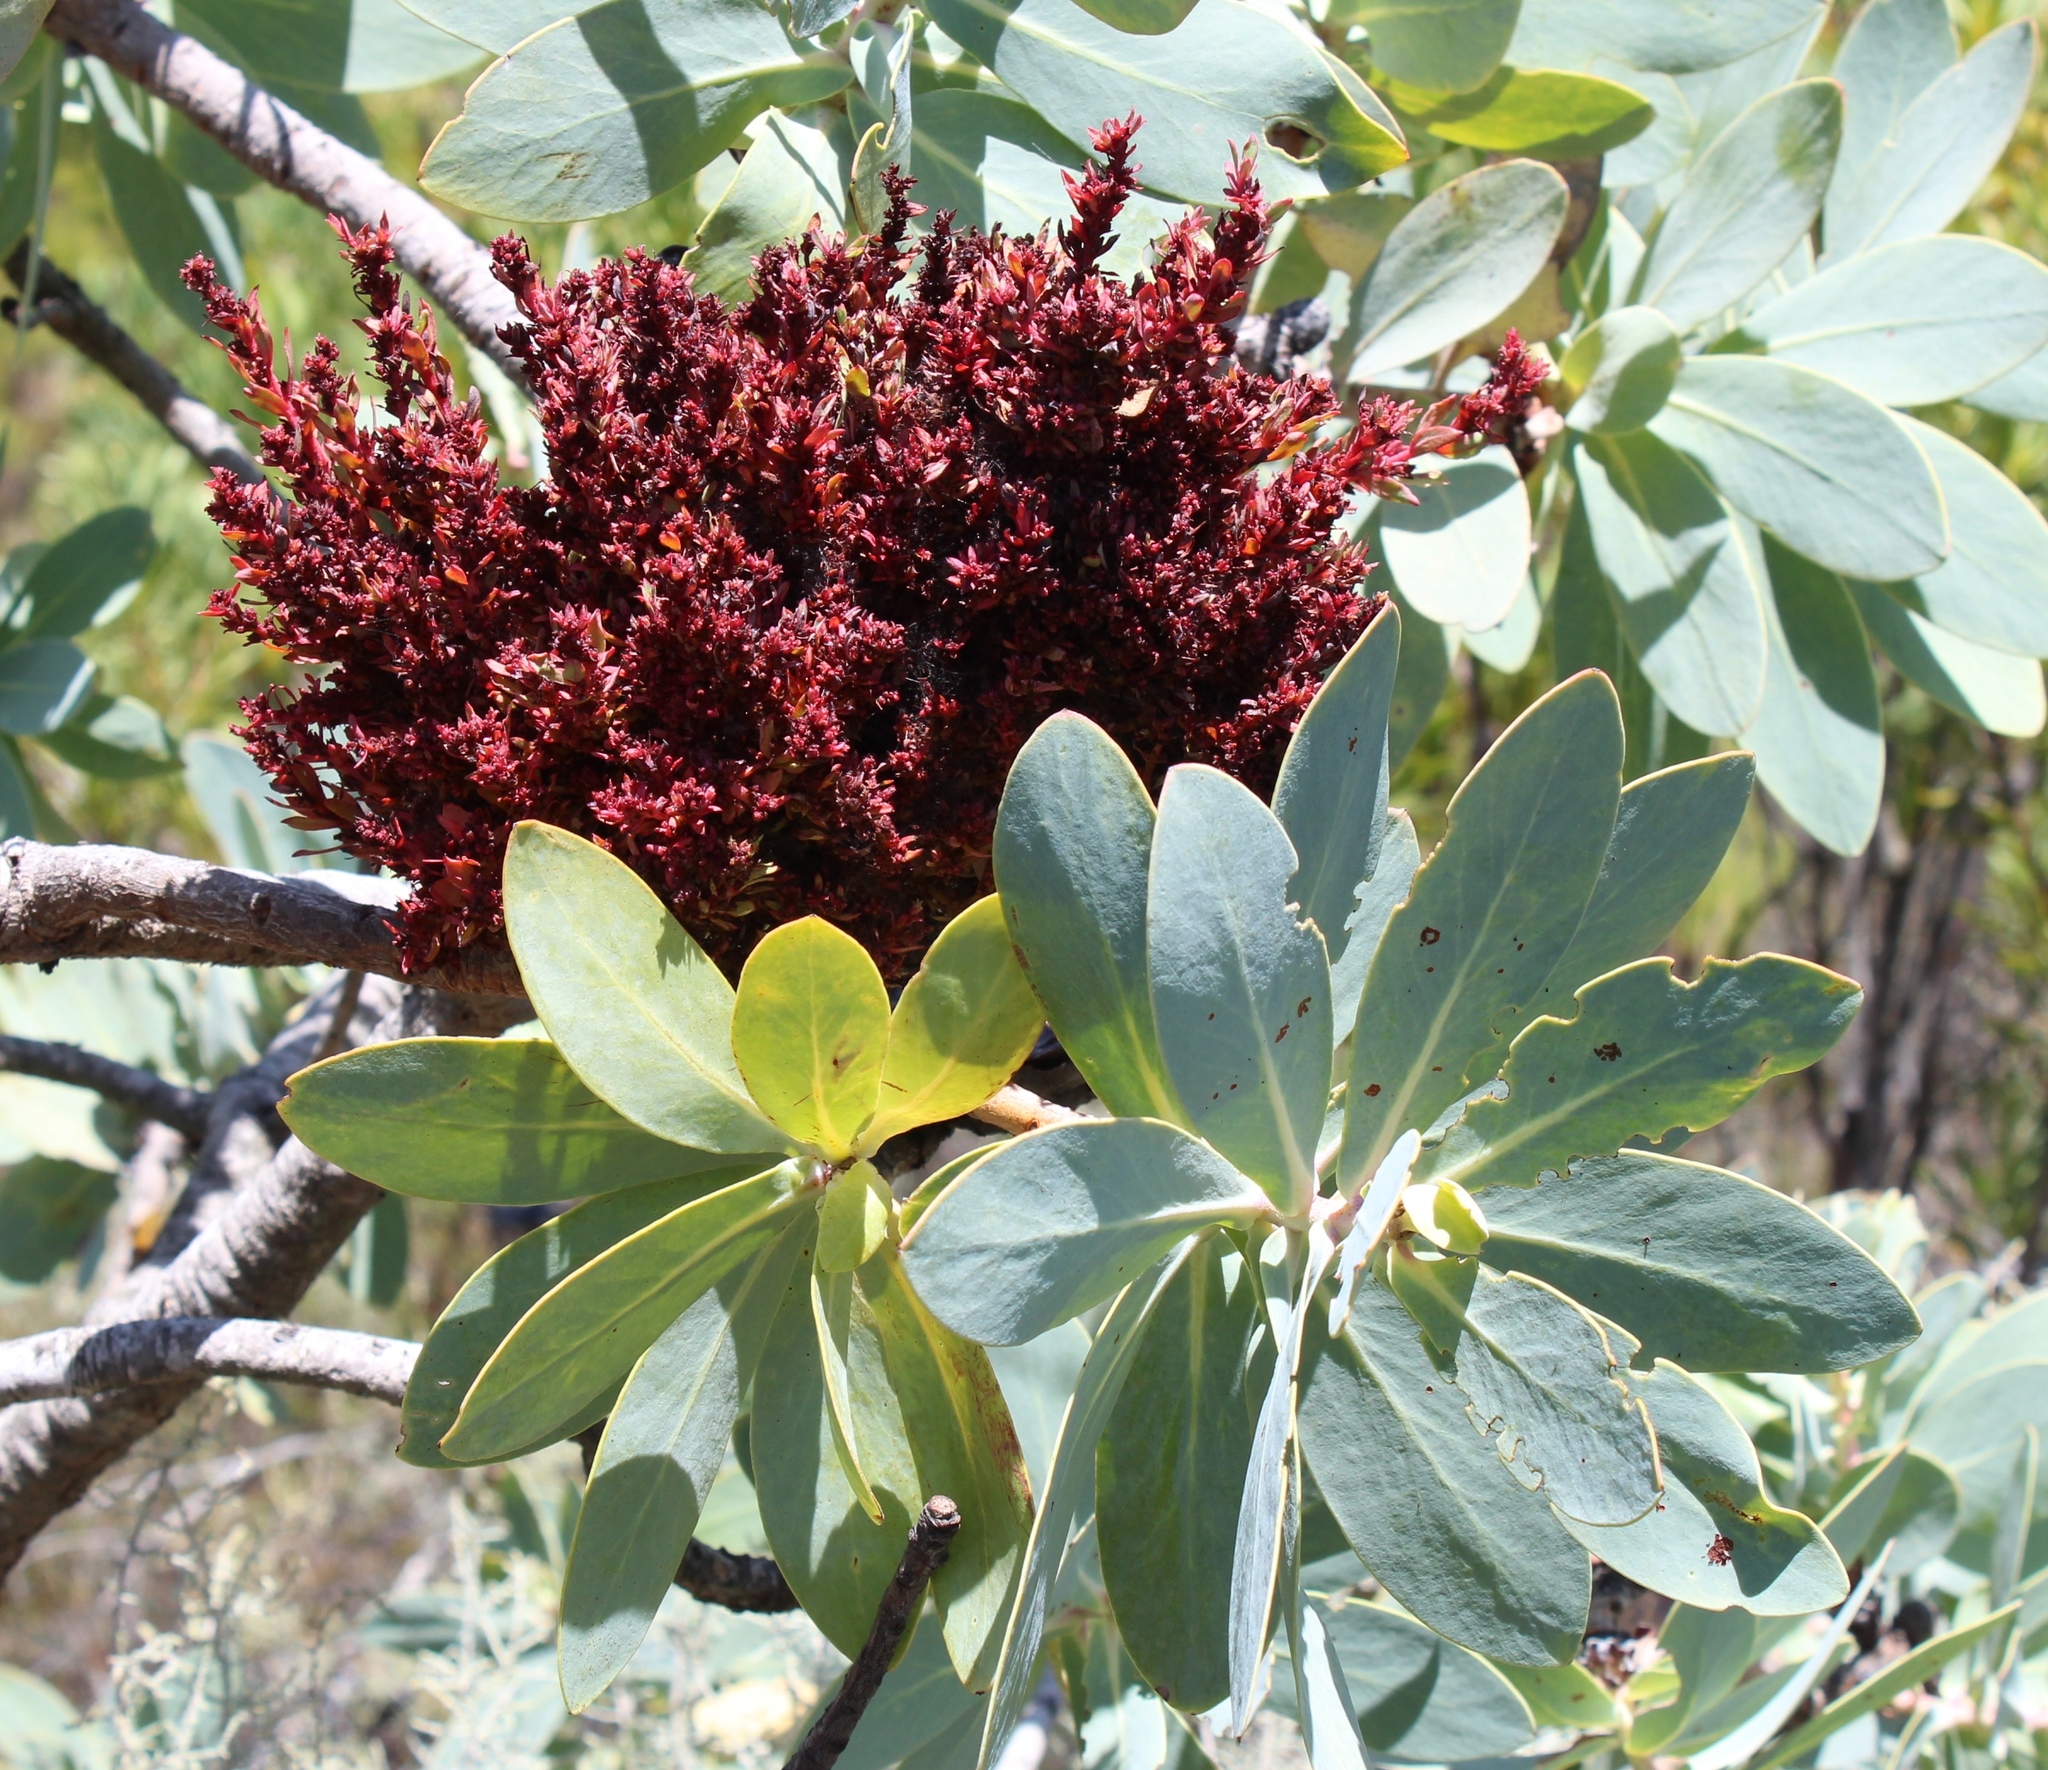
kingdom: Bacteria
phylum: Firmicutes
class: Bacilli
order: Acholeplasmatales
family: Acholeplasmataceae
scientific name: Acholeplasmataceae
